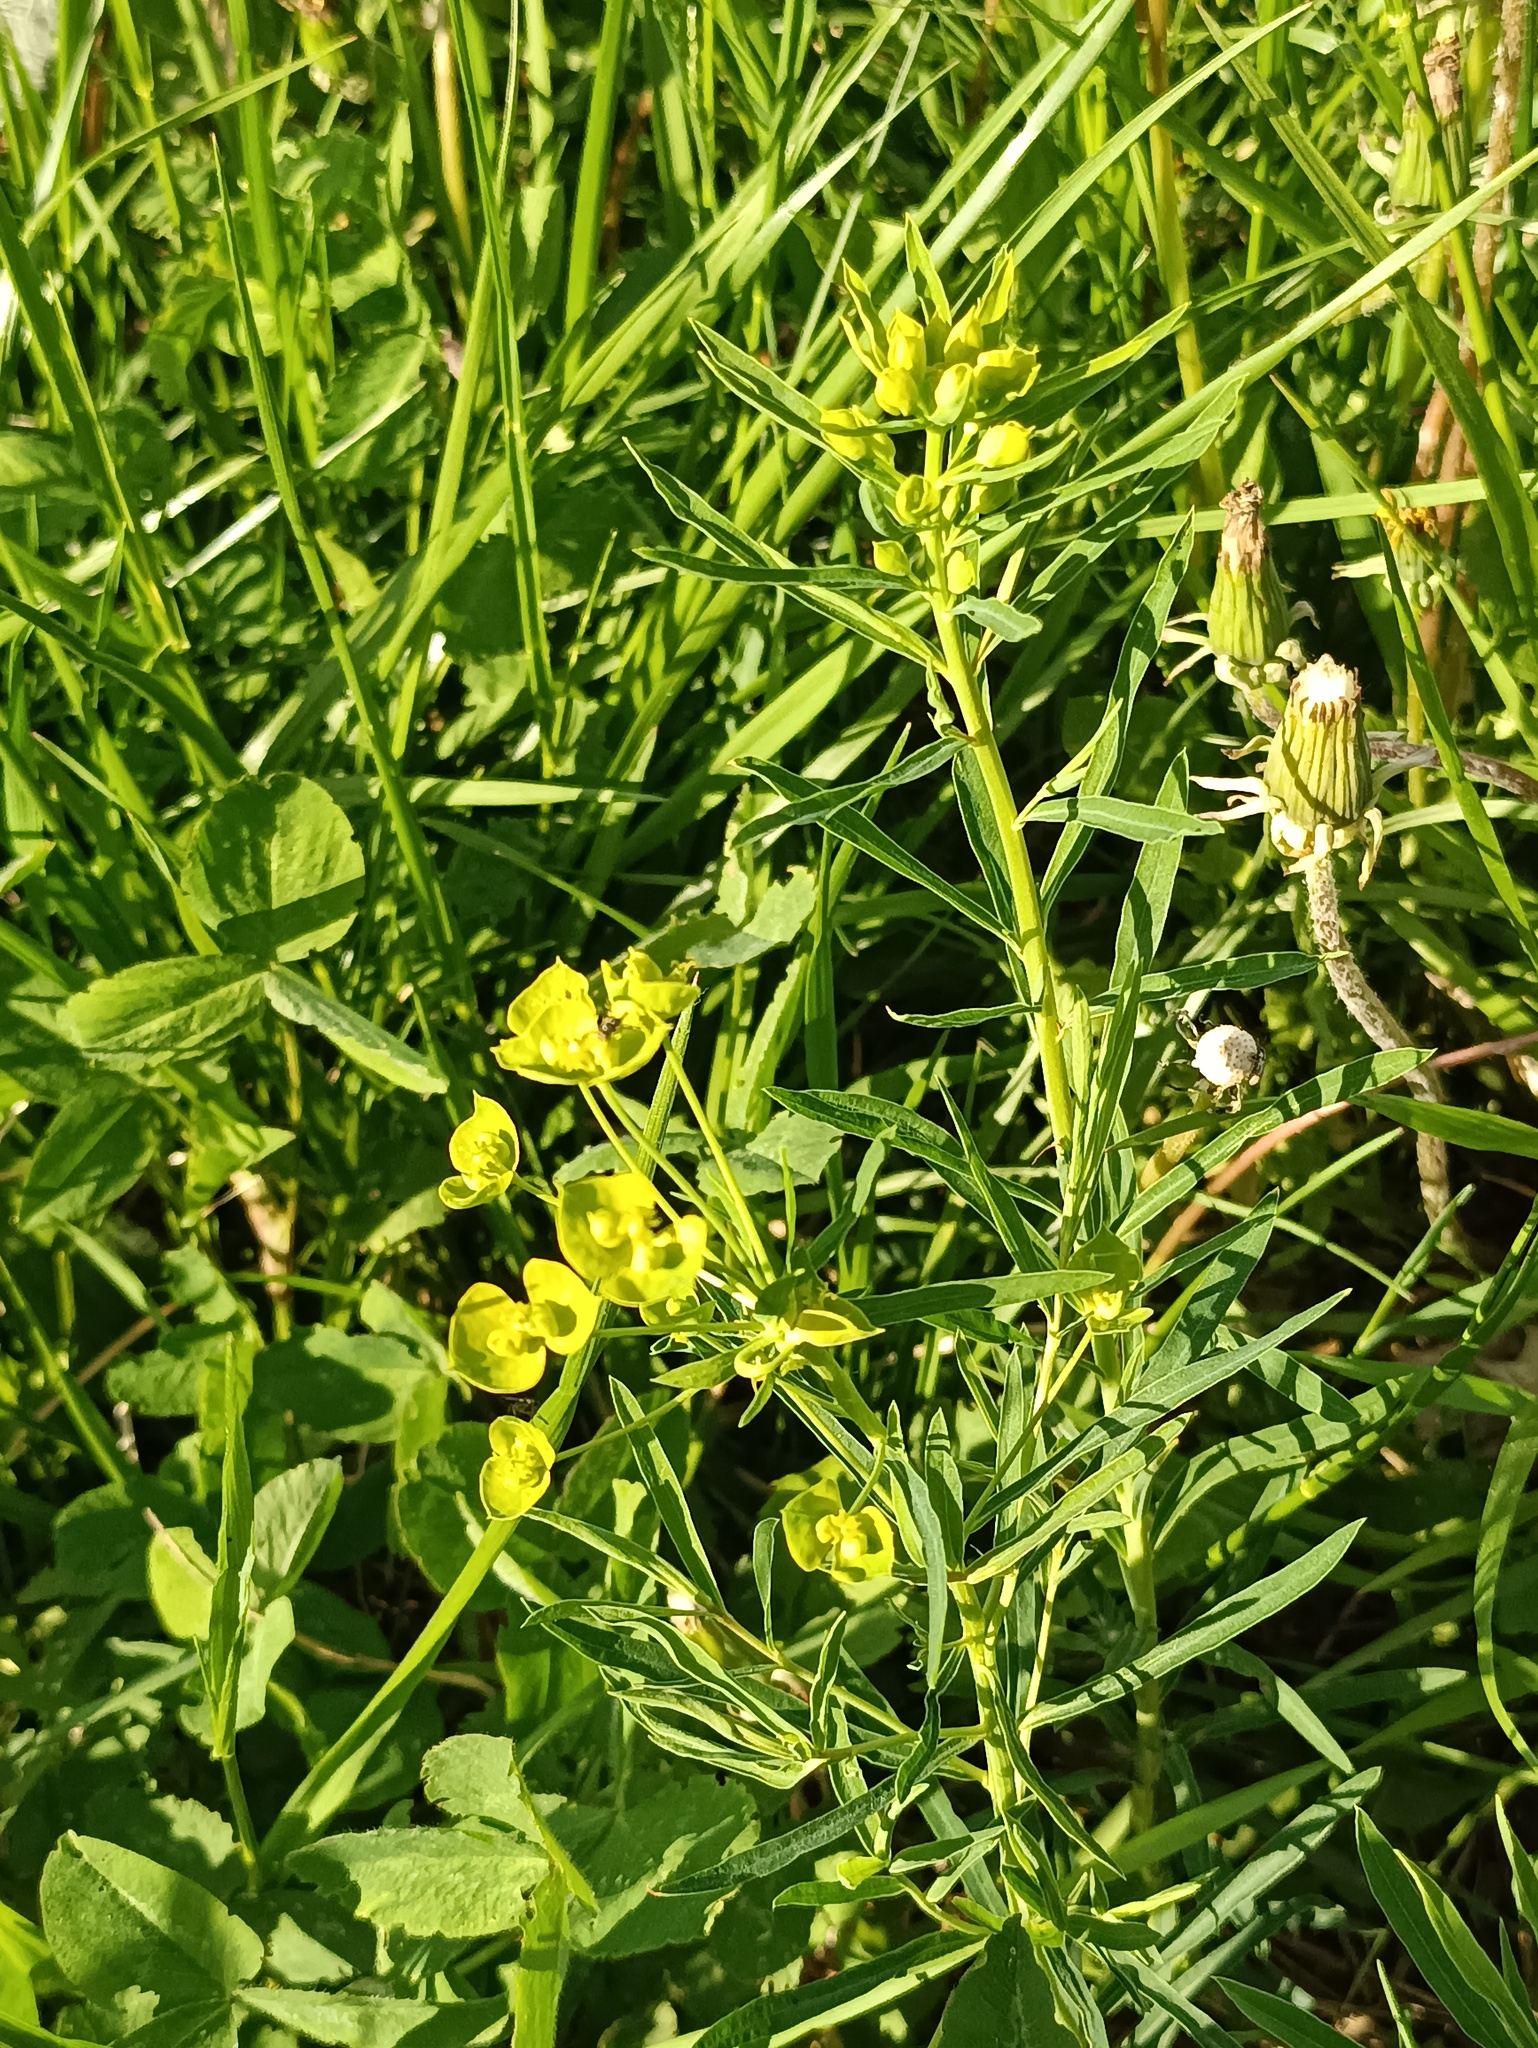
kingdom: Plantae
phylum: Tracheophyta
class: Magnoliopsida
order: Malpighiales
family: Euphorbiaceae
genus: Euphorbia
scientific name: Euphorbia virgata
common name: Leafy spurge
